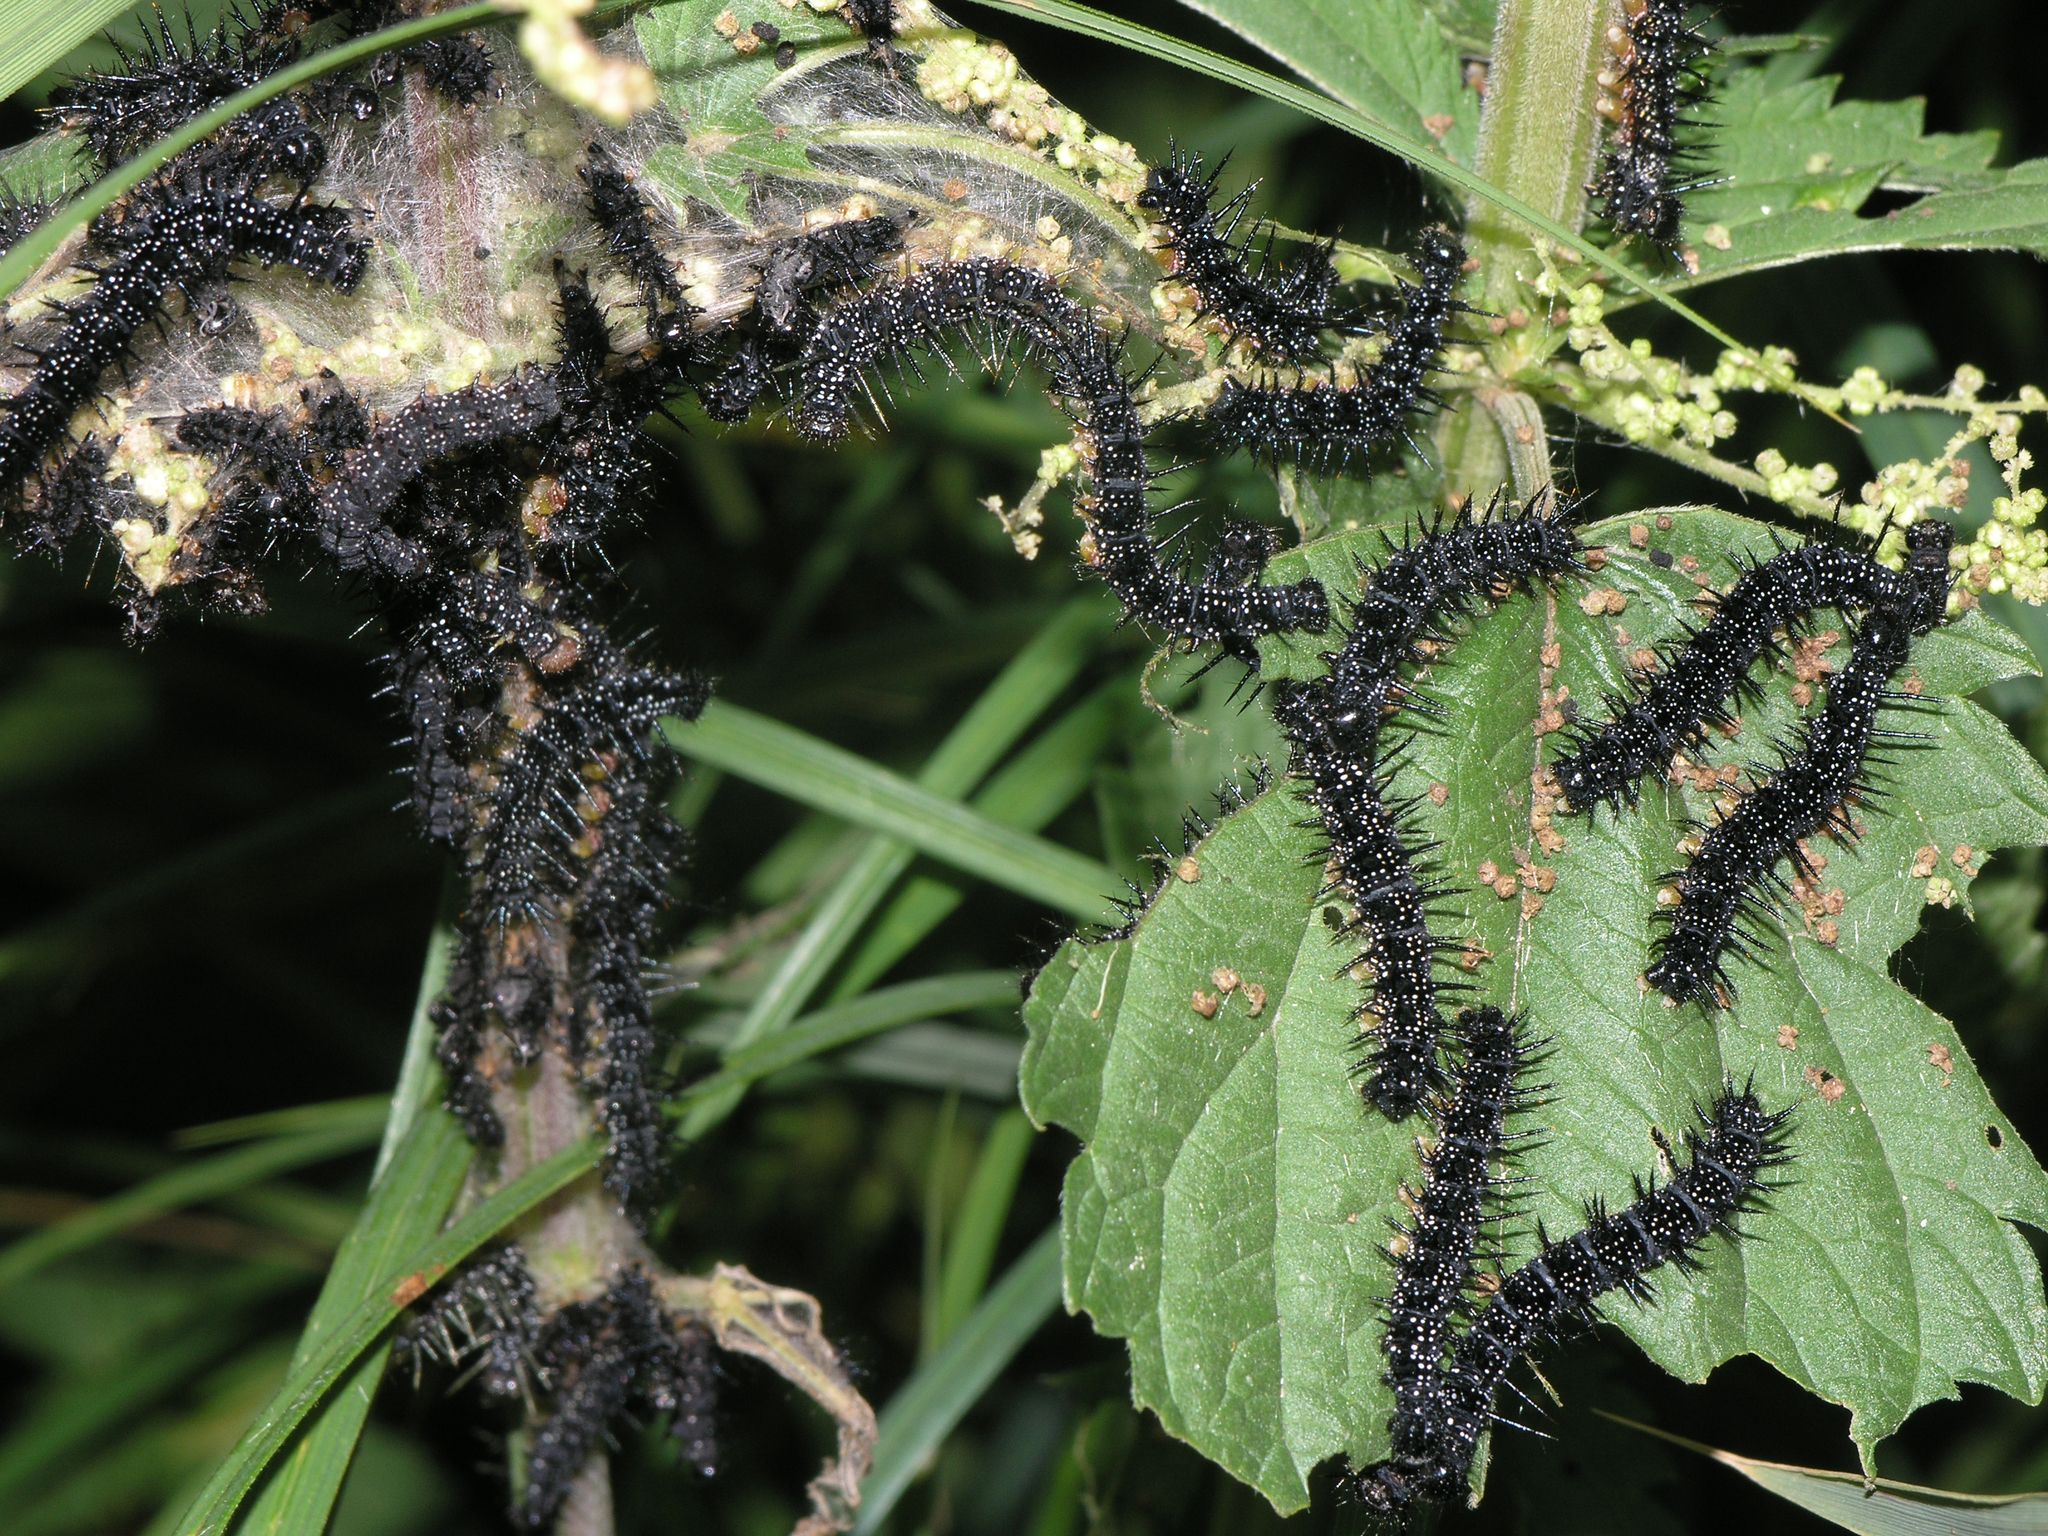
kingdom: Plantae
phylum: Tracheophyta
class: Magnoliopsida
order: Rosales
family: Urticaceae
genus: Urtica
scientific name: Urtica dioica
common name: Common nettle
